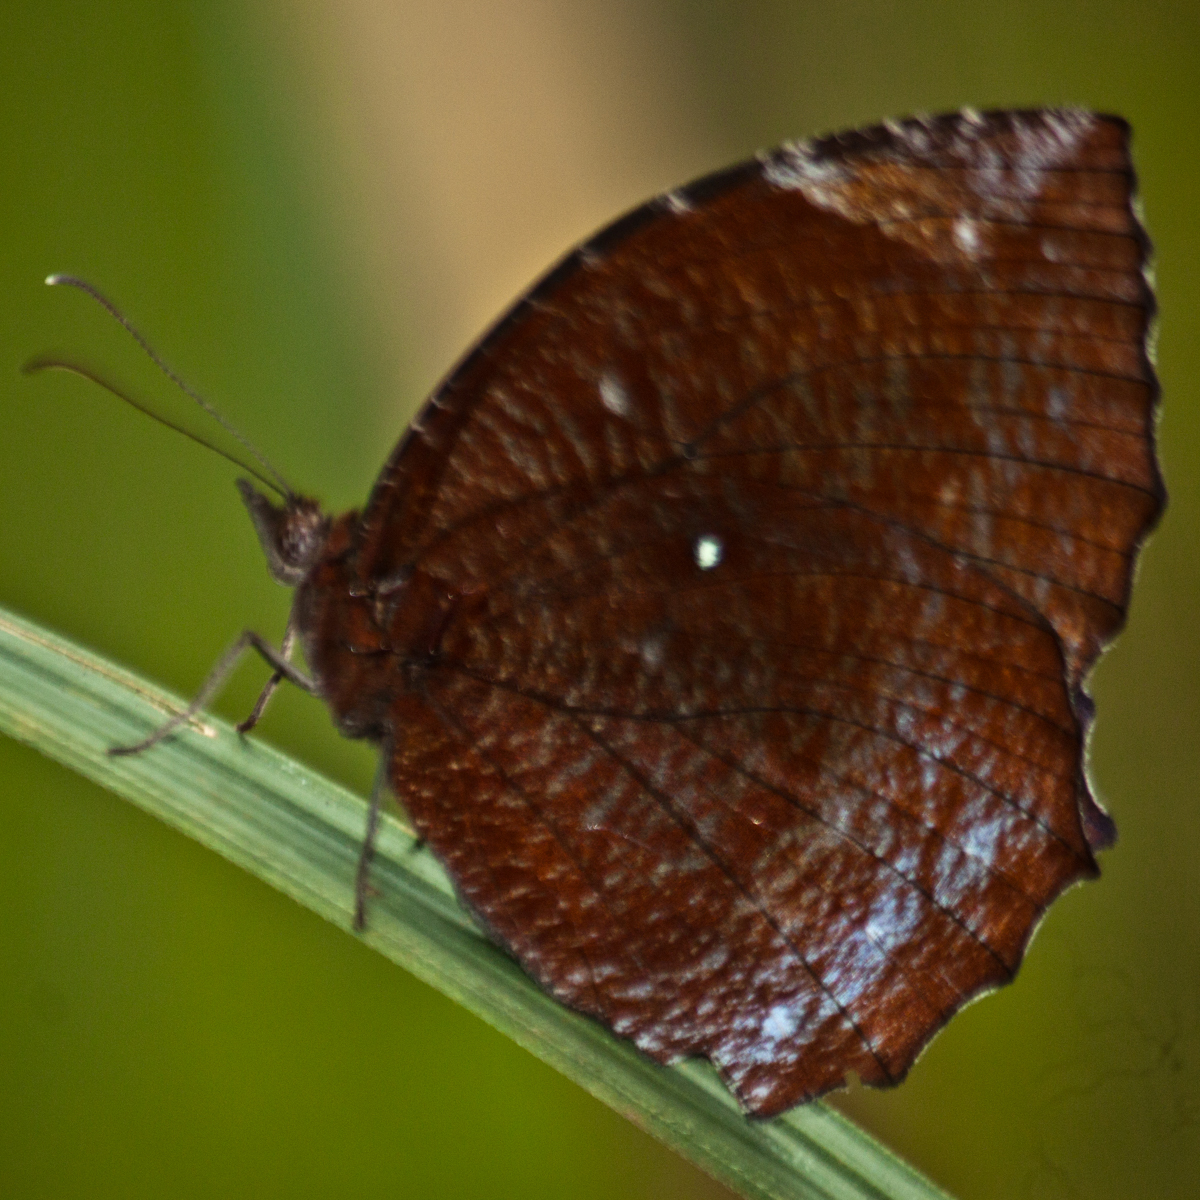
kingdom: Animalia
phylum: Arthropoda
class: Insecta
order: Lepidoptera
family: Nymphalidae
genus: Elymnias
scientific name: Elymnias hypermnestra
